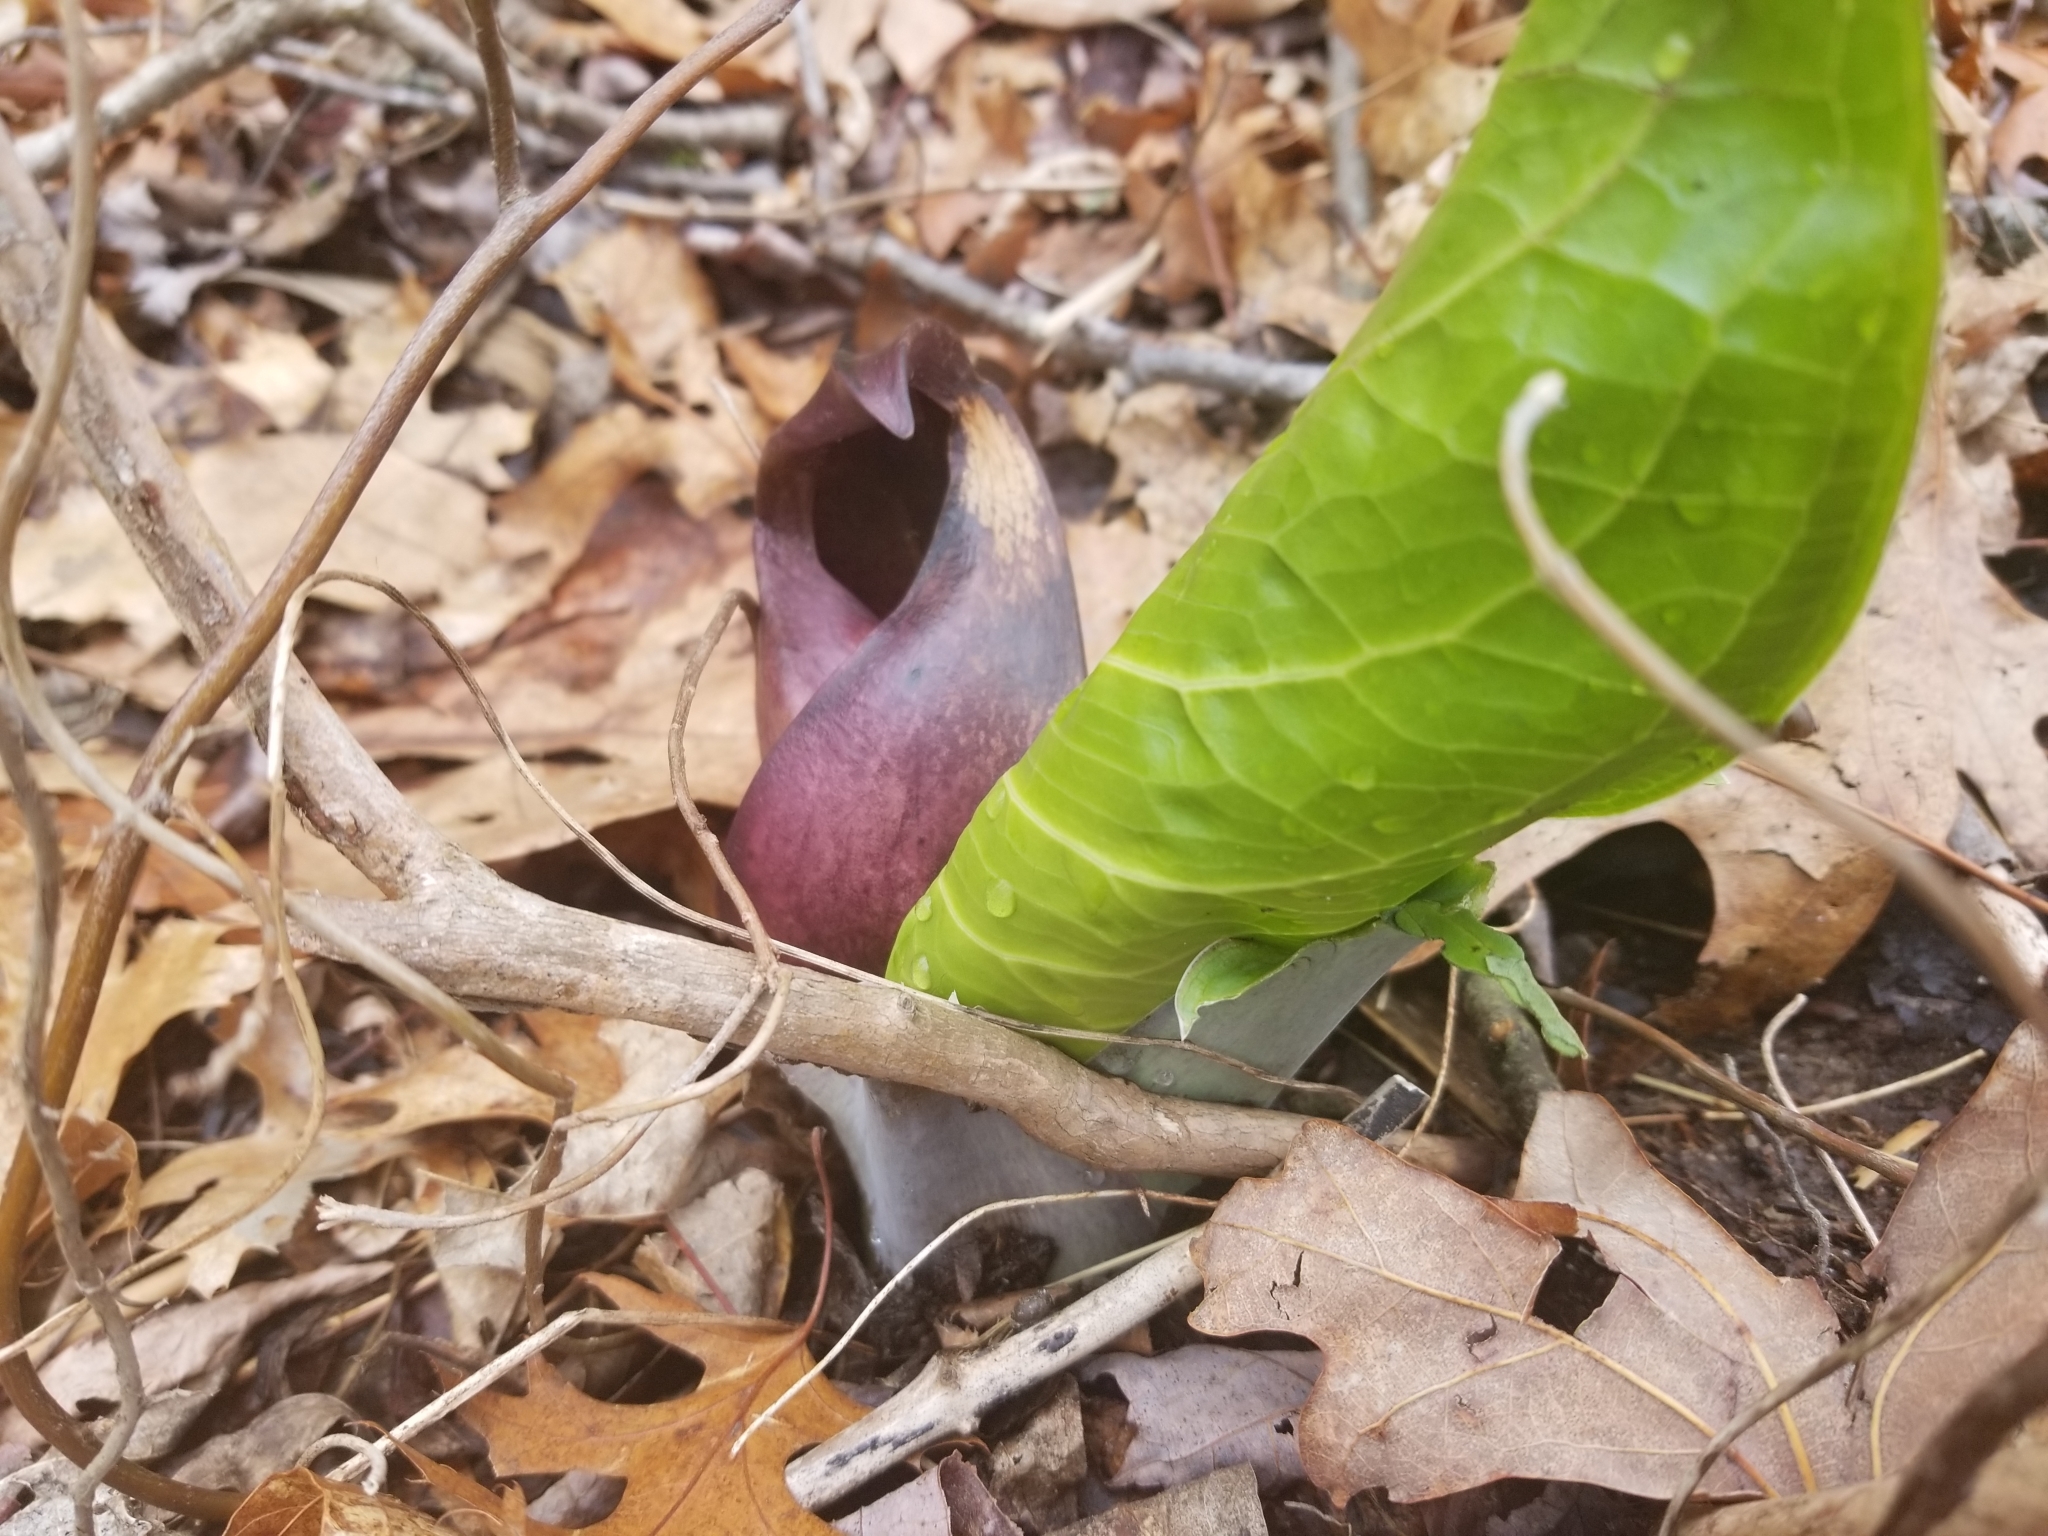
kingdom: Plantae
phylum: Tracheophyta
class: Liliopsida
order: Alismatales
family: Araceae
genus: Symplocarpus
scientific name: Symplocarpus foetidus
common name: Eastern skunk cabbage
